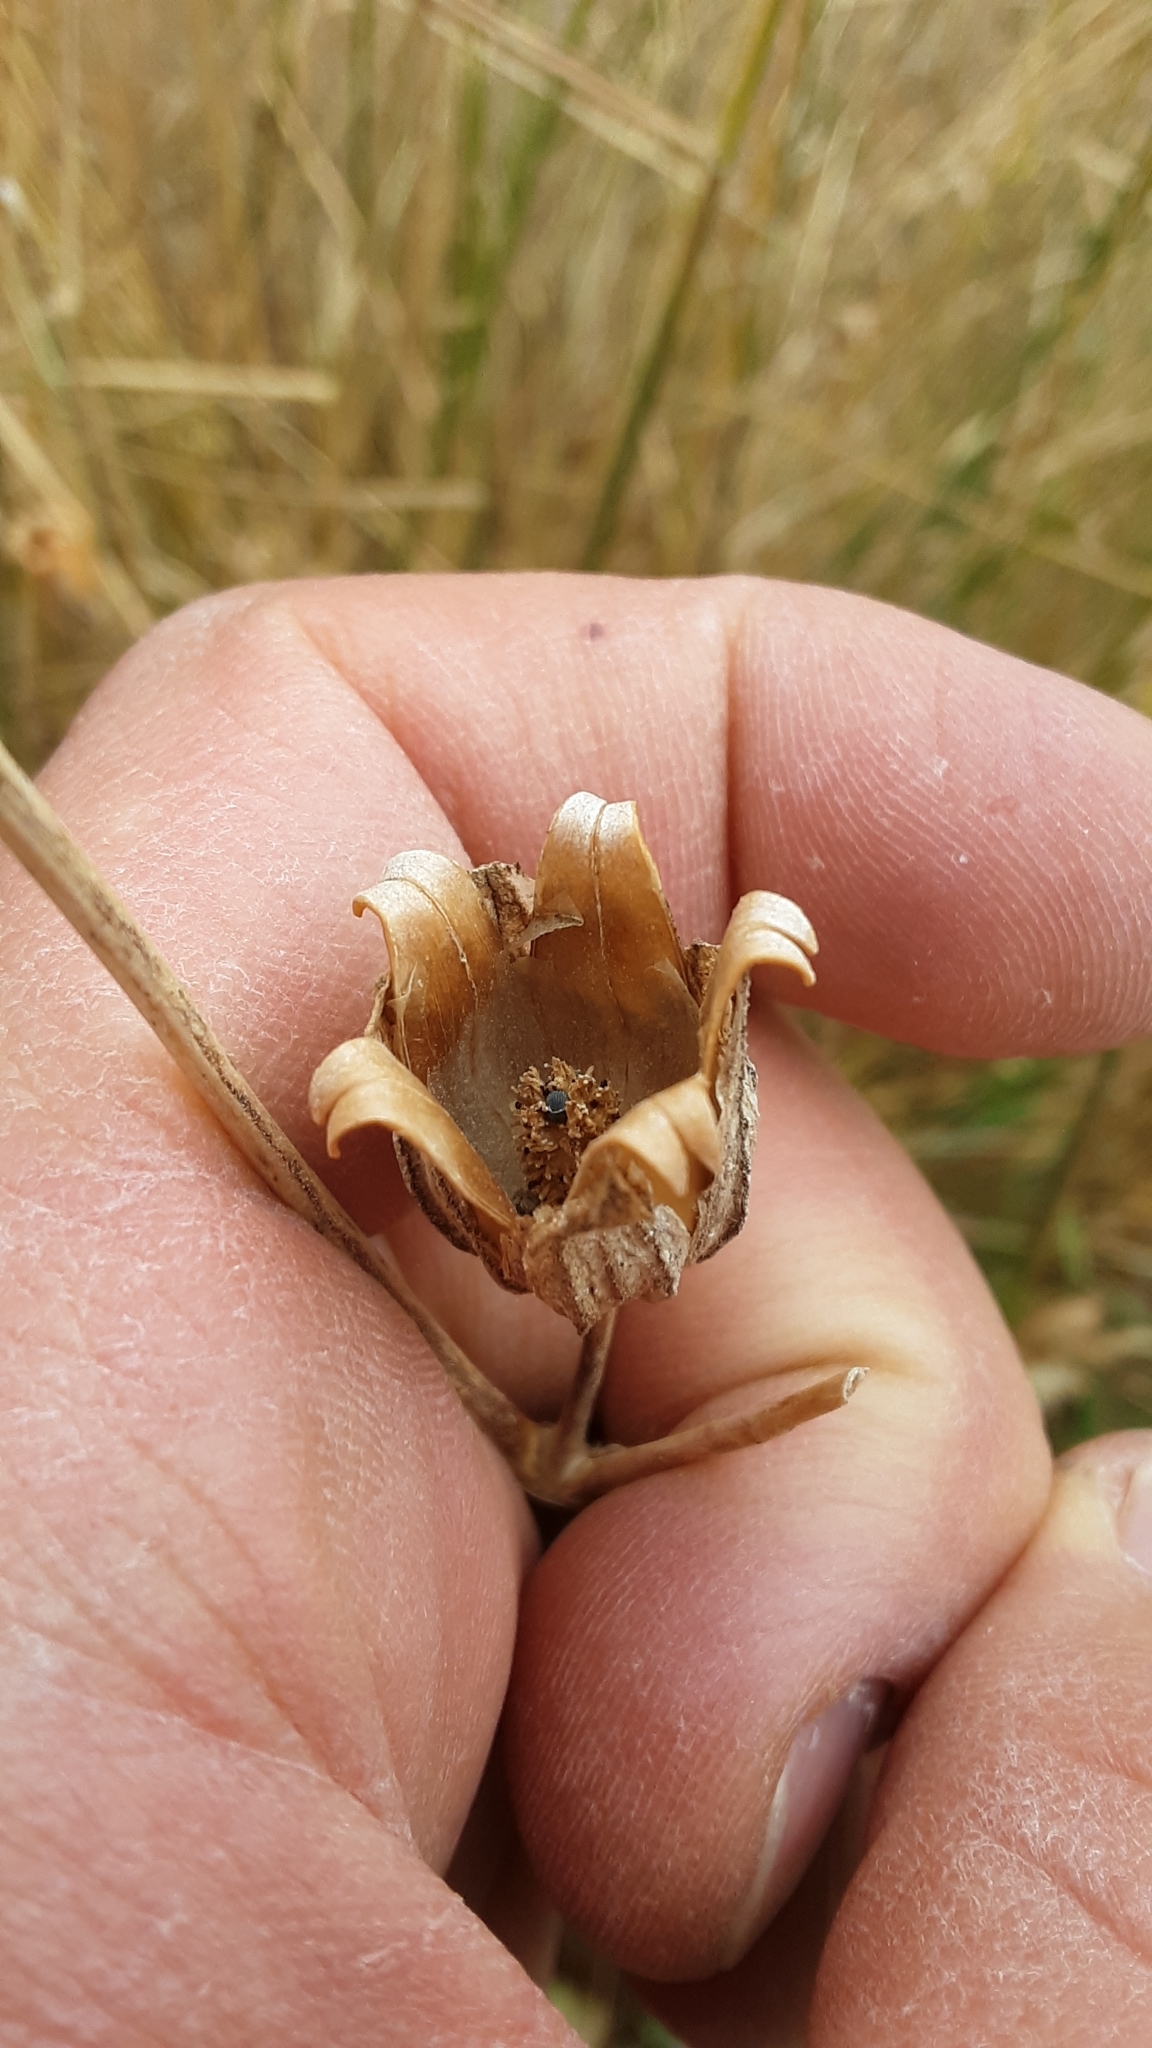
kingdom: Plantae
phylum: Tracheophyta
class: Magnoliopsida
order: Caryophyllales
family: Caryophyllaceae
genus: Silene
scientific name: Silene latifolia
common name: White campion
